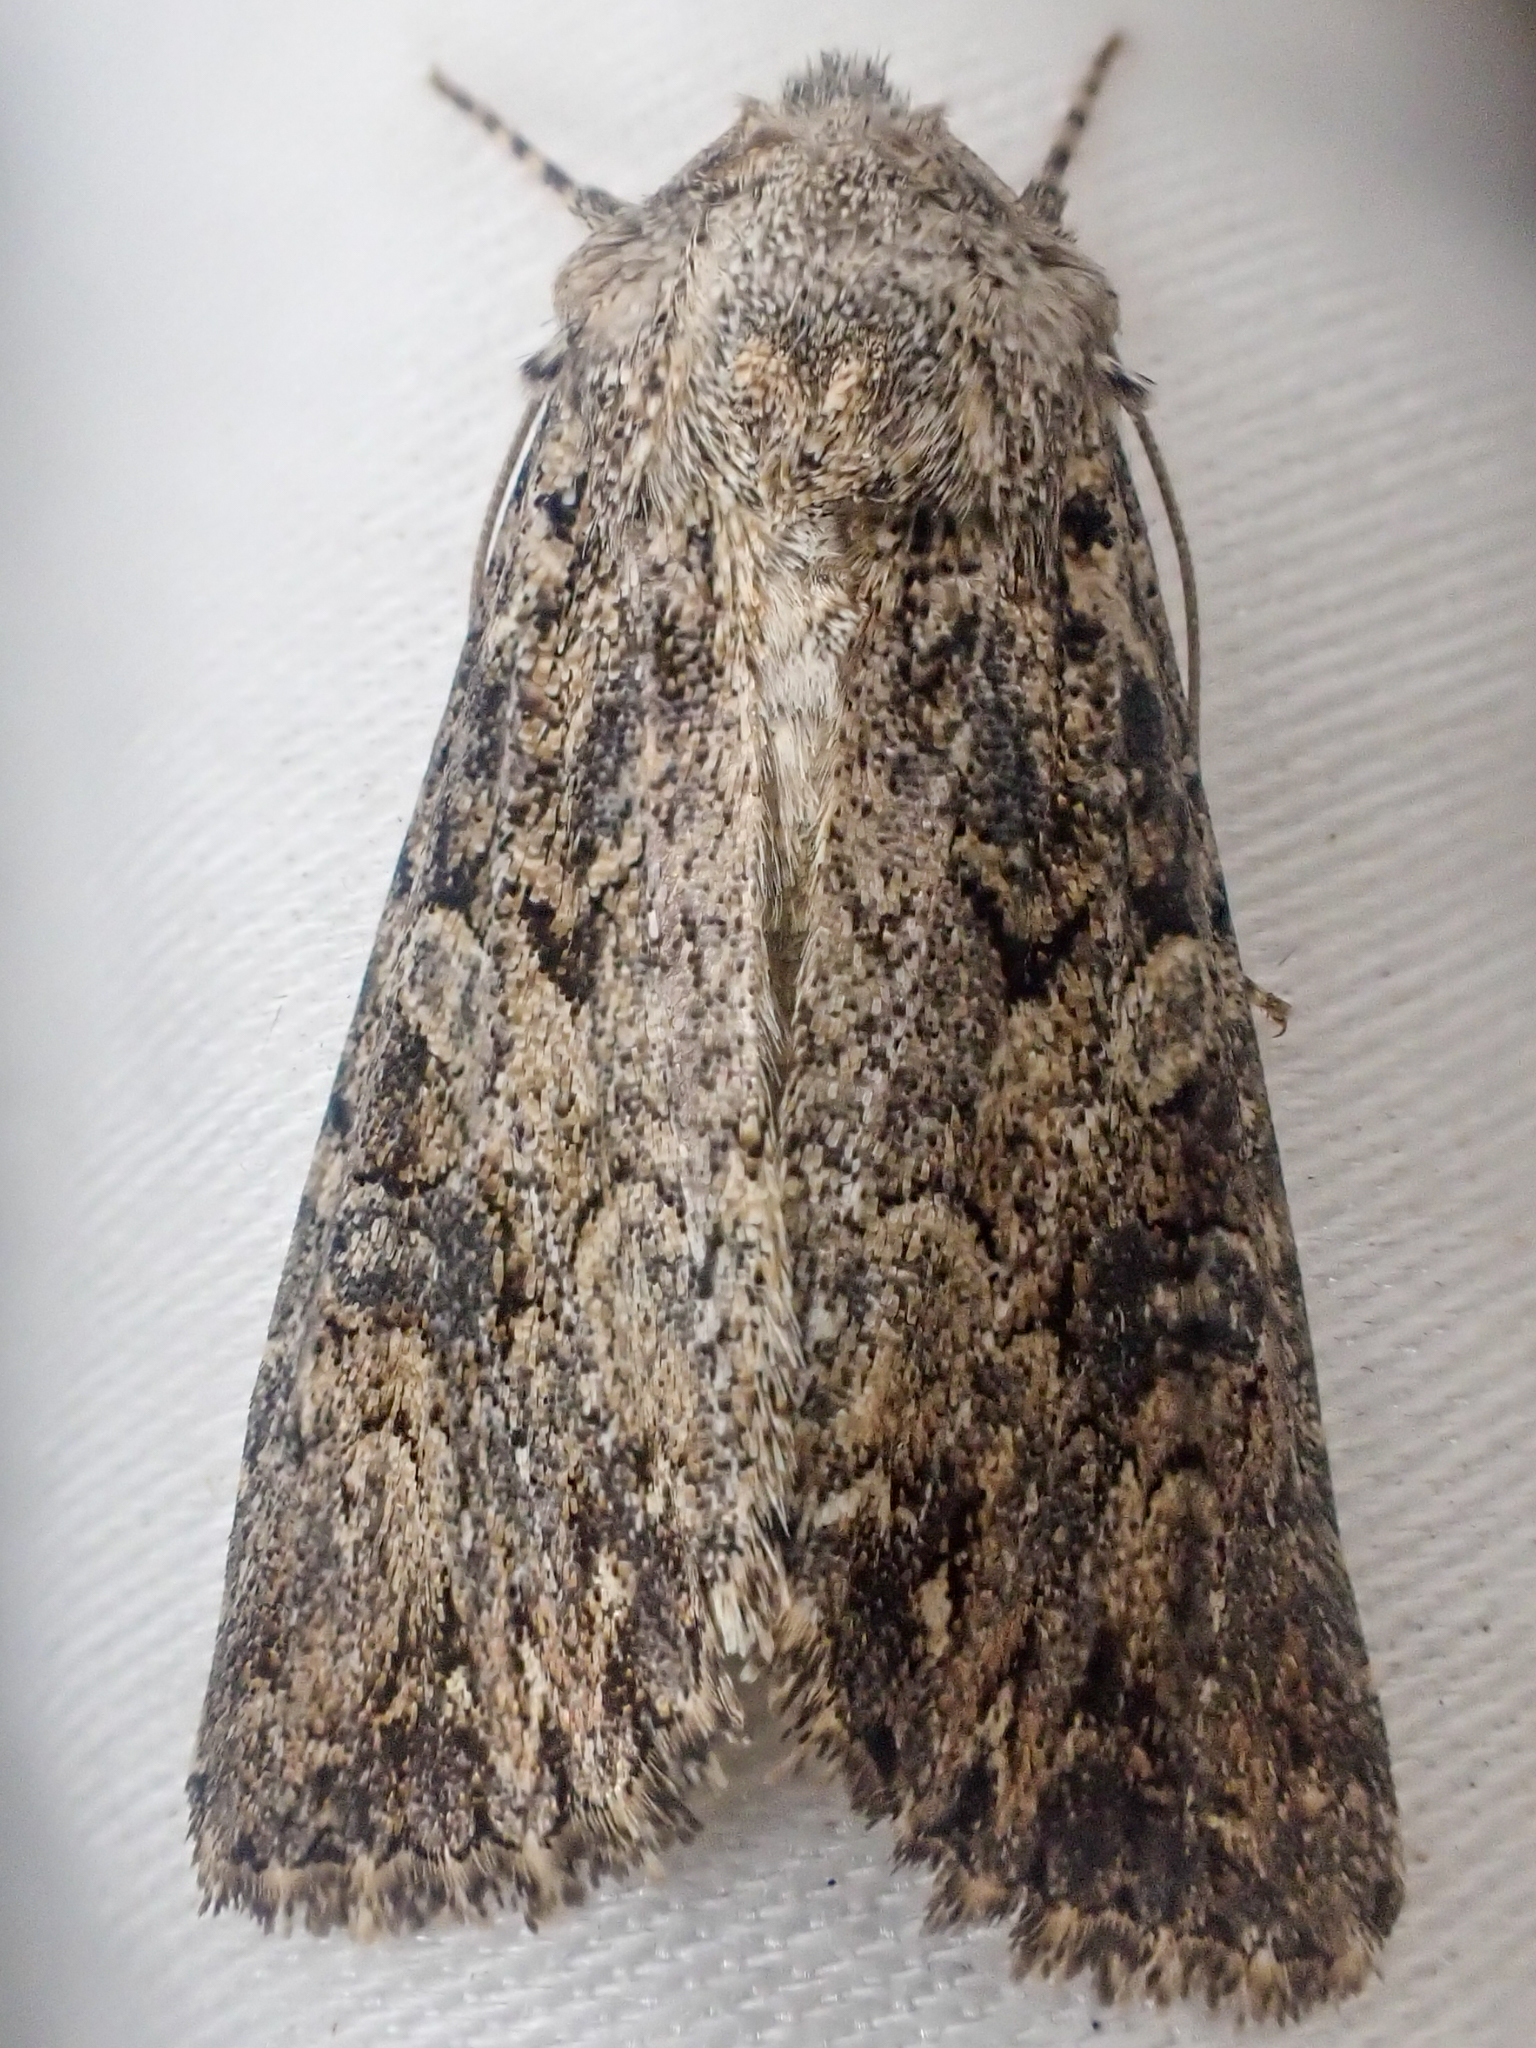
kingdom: Animalia
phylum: Arthropoda
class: Insecta
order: Lepidoptera
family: Noctuidae
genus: Anarta
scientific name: Anarta trifolii
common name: Clover cutworm moth
